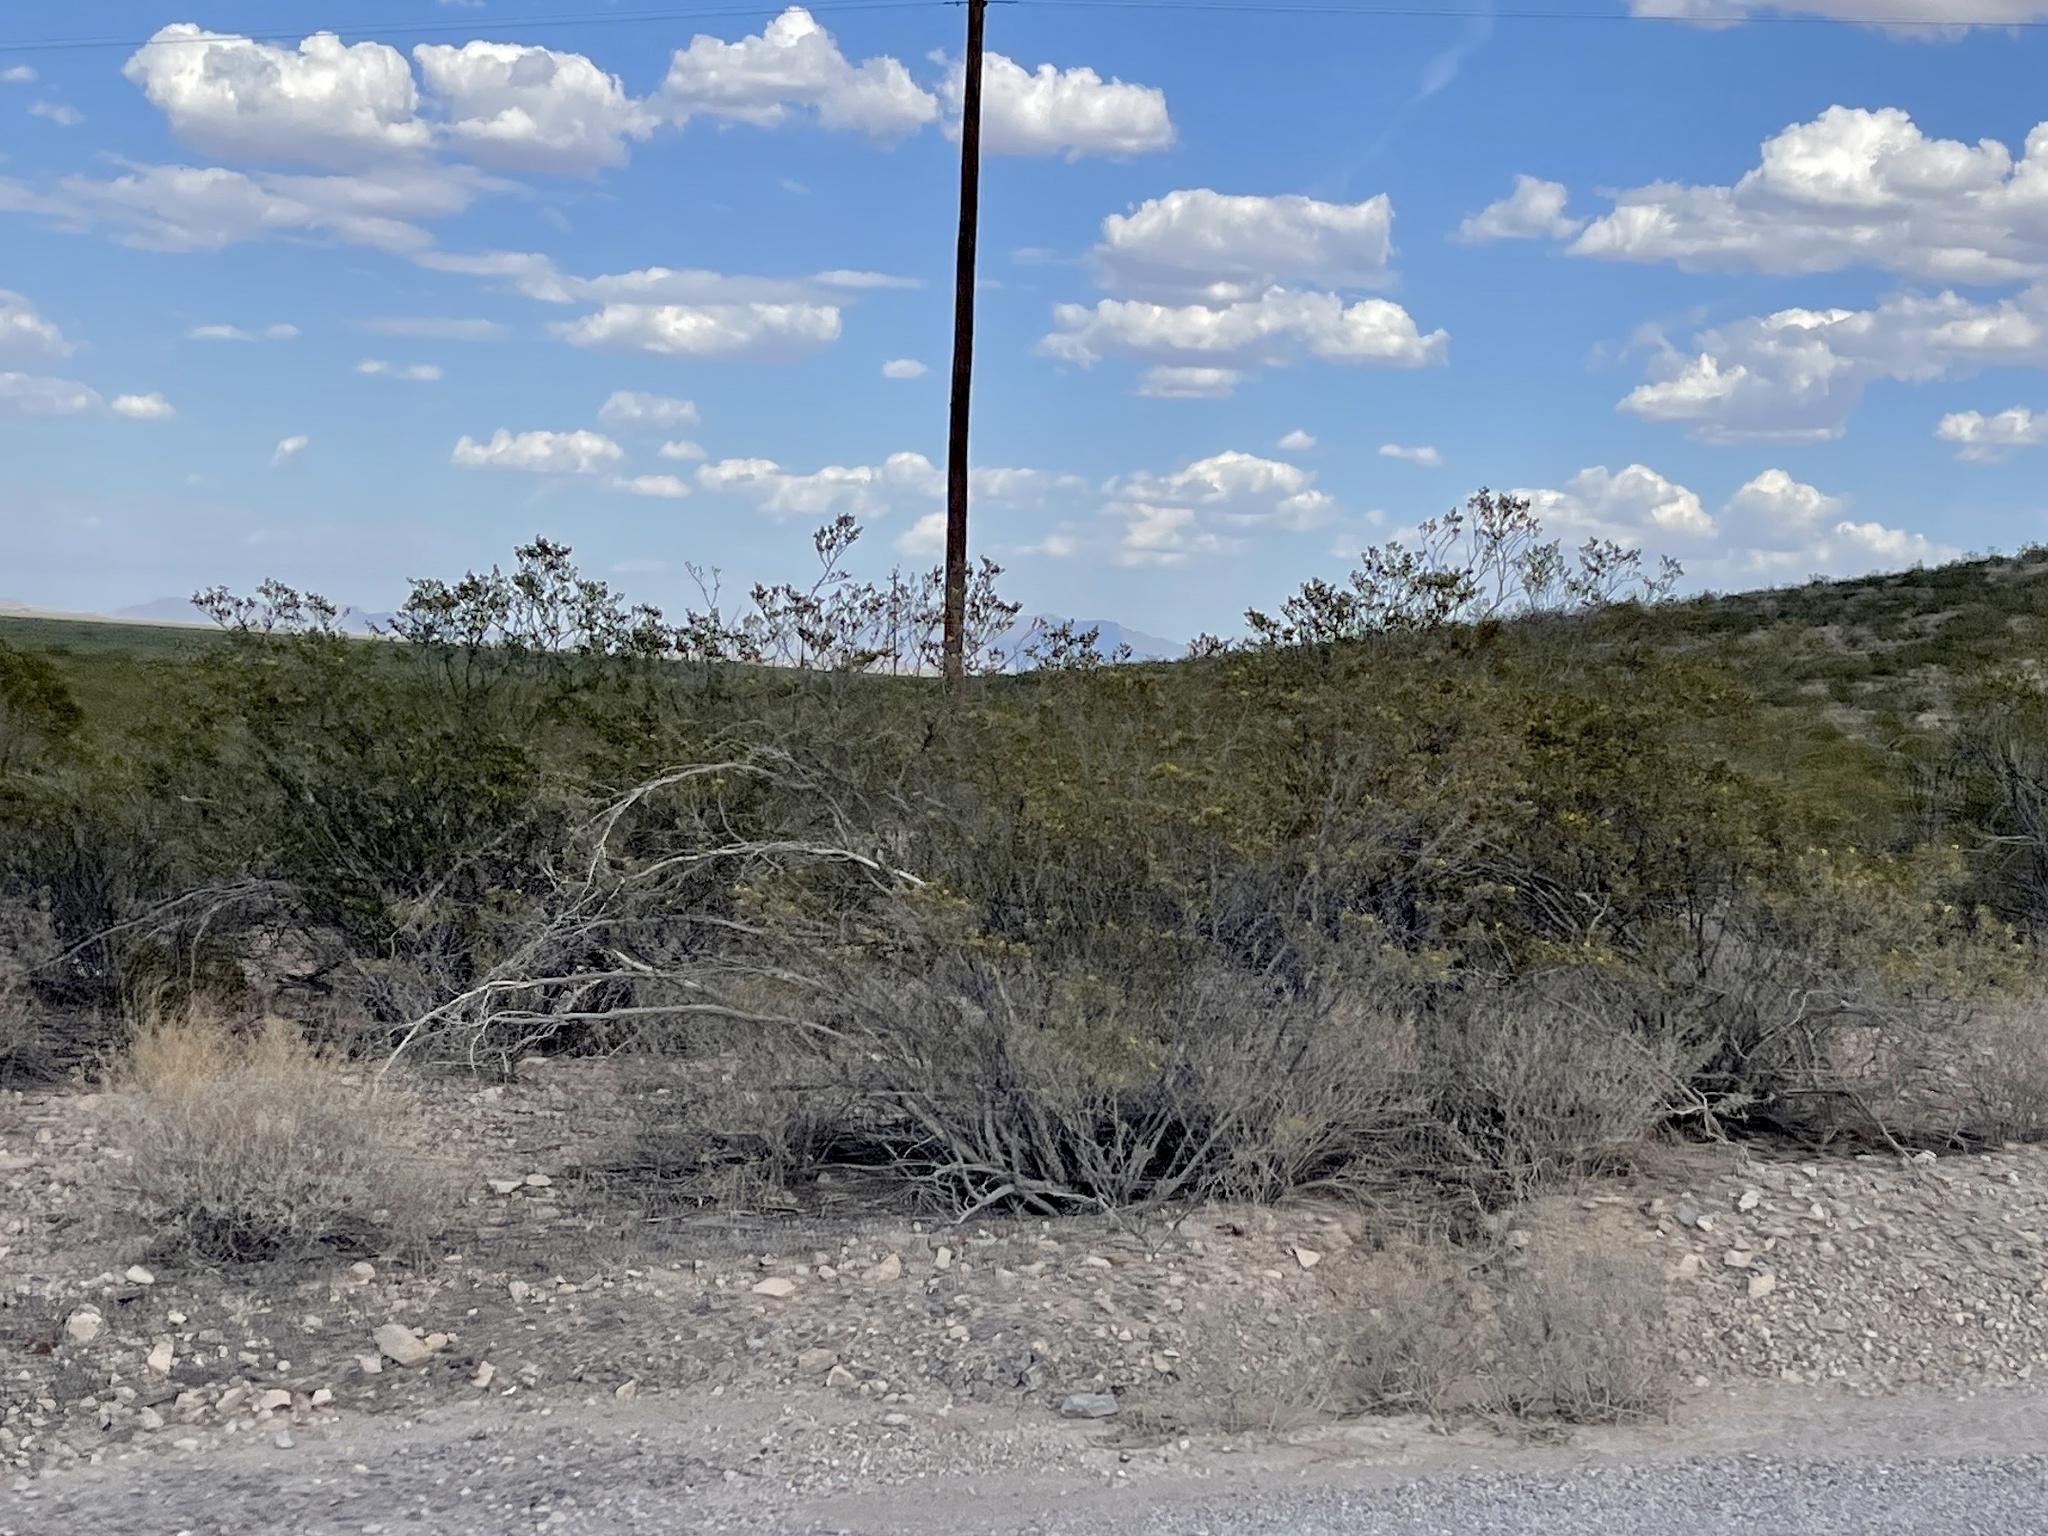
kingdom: Plantae
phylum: Tracheophyta
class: Magnoliopsida
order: Zygophyllales
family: Zygophyllaceae
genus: Larrea
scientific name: Larrea tridentata
